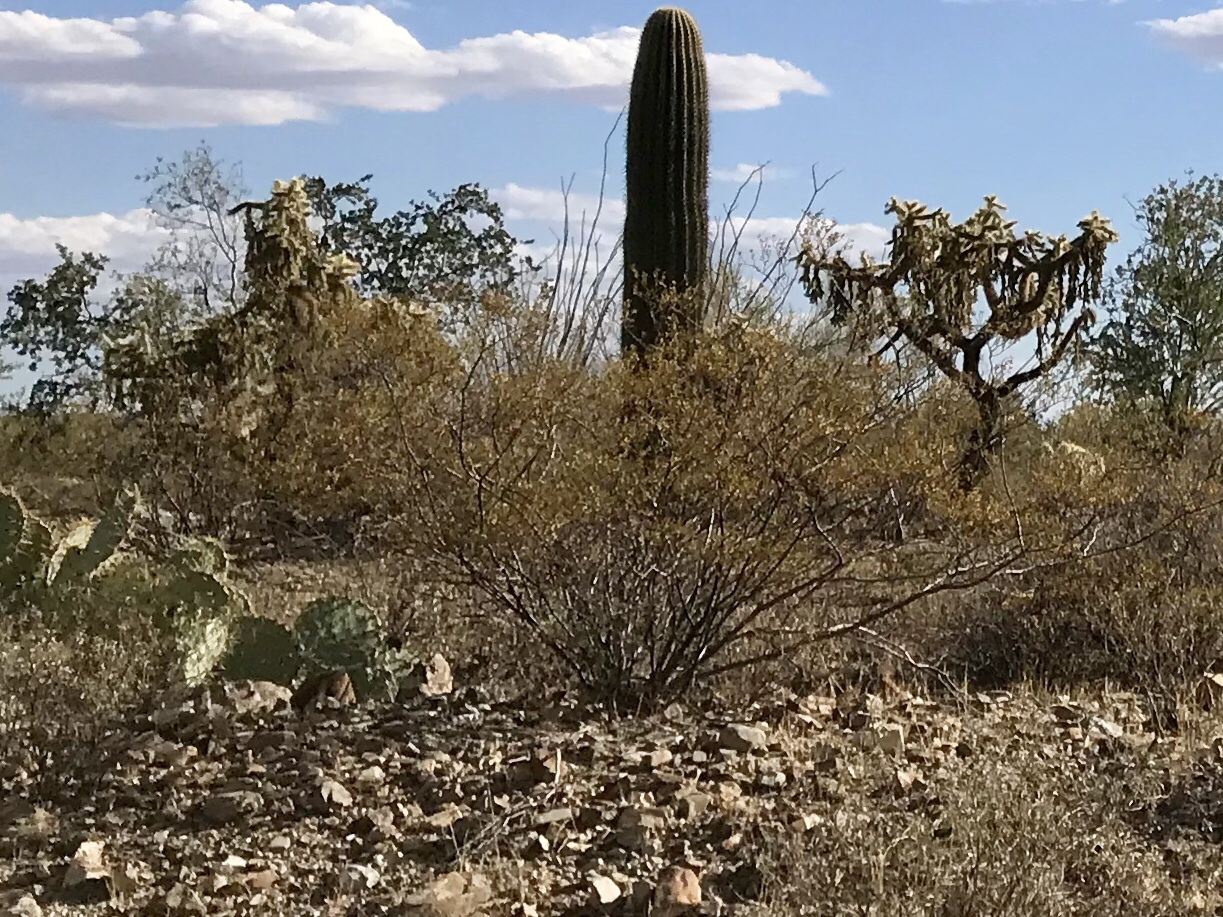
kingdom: Plantae
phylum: Tracheophyta
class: Magnoliopsida
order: Zygophyllales
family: Zygophyllaceae
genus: Larrea
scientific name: Larrea tridentata
